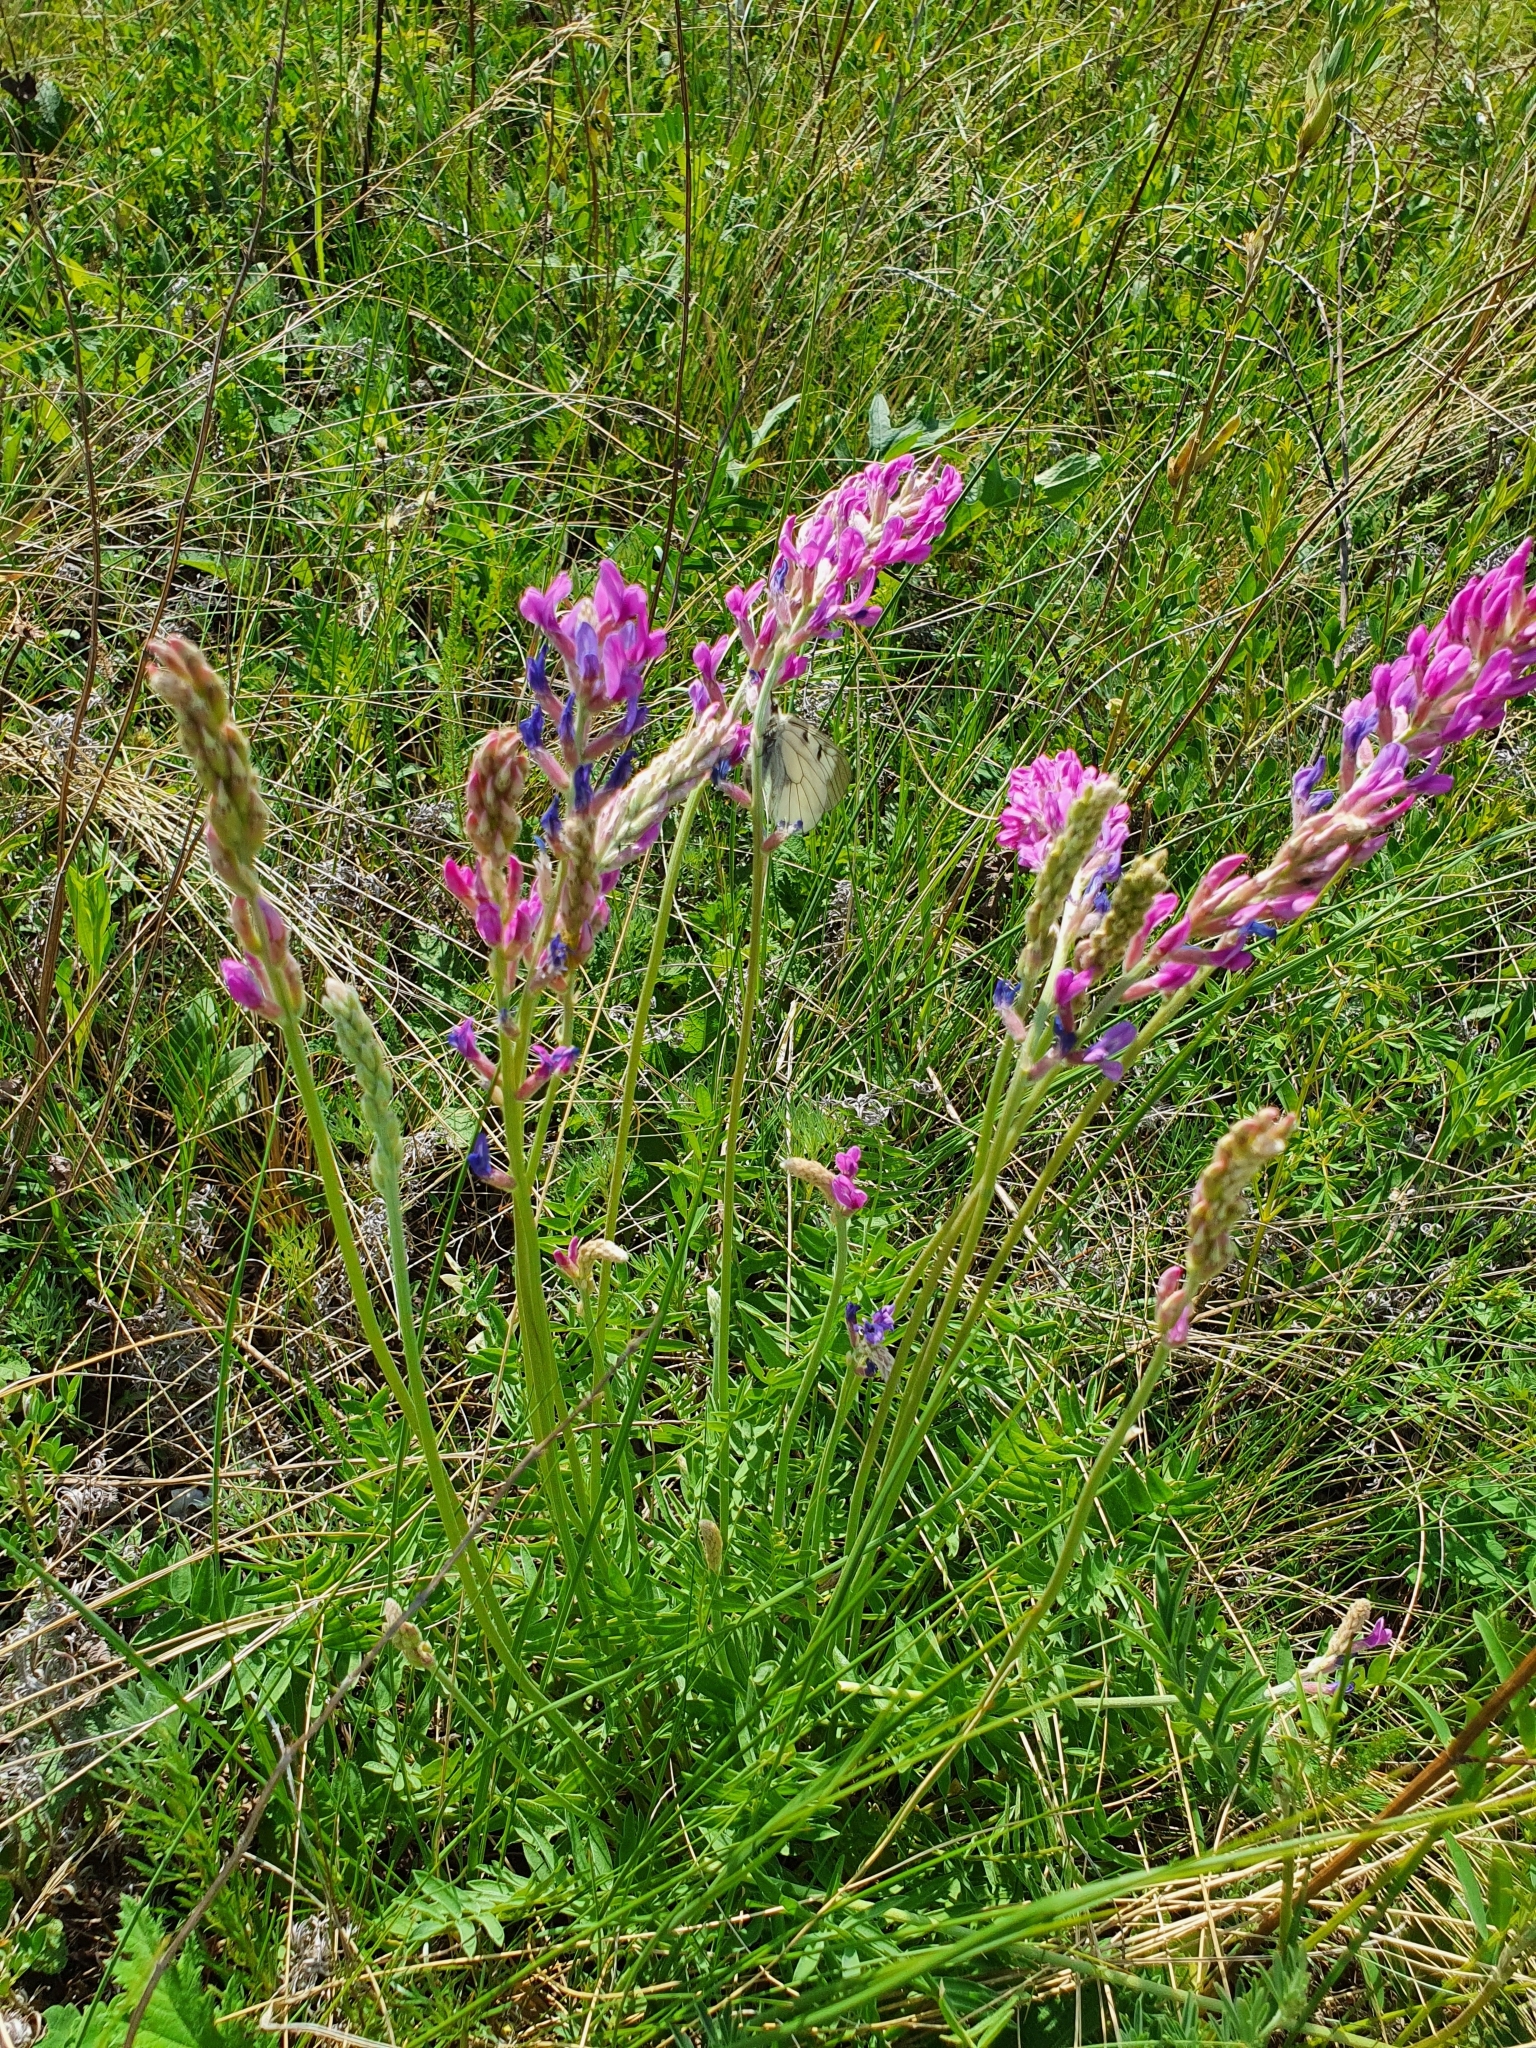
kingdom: Plantae
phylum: Tracheophyta
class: Magnoliopsida
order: Fabales
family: Fabaceae
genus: Oxytropis
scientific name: Oxytropis knjazevii
